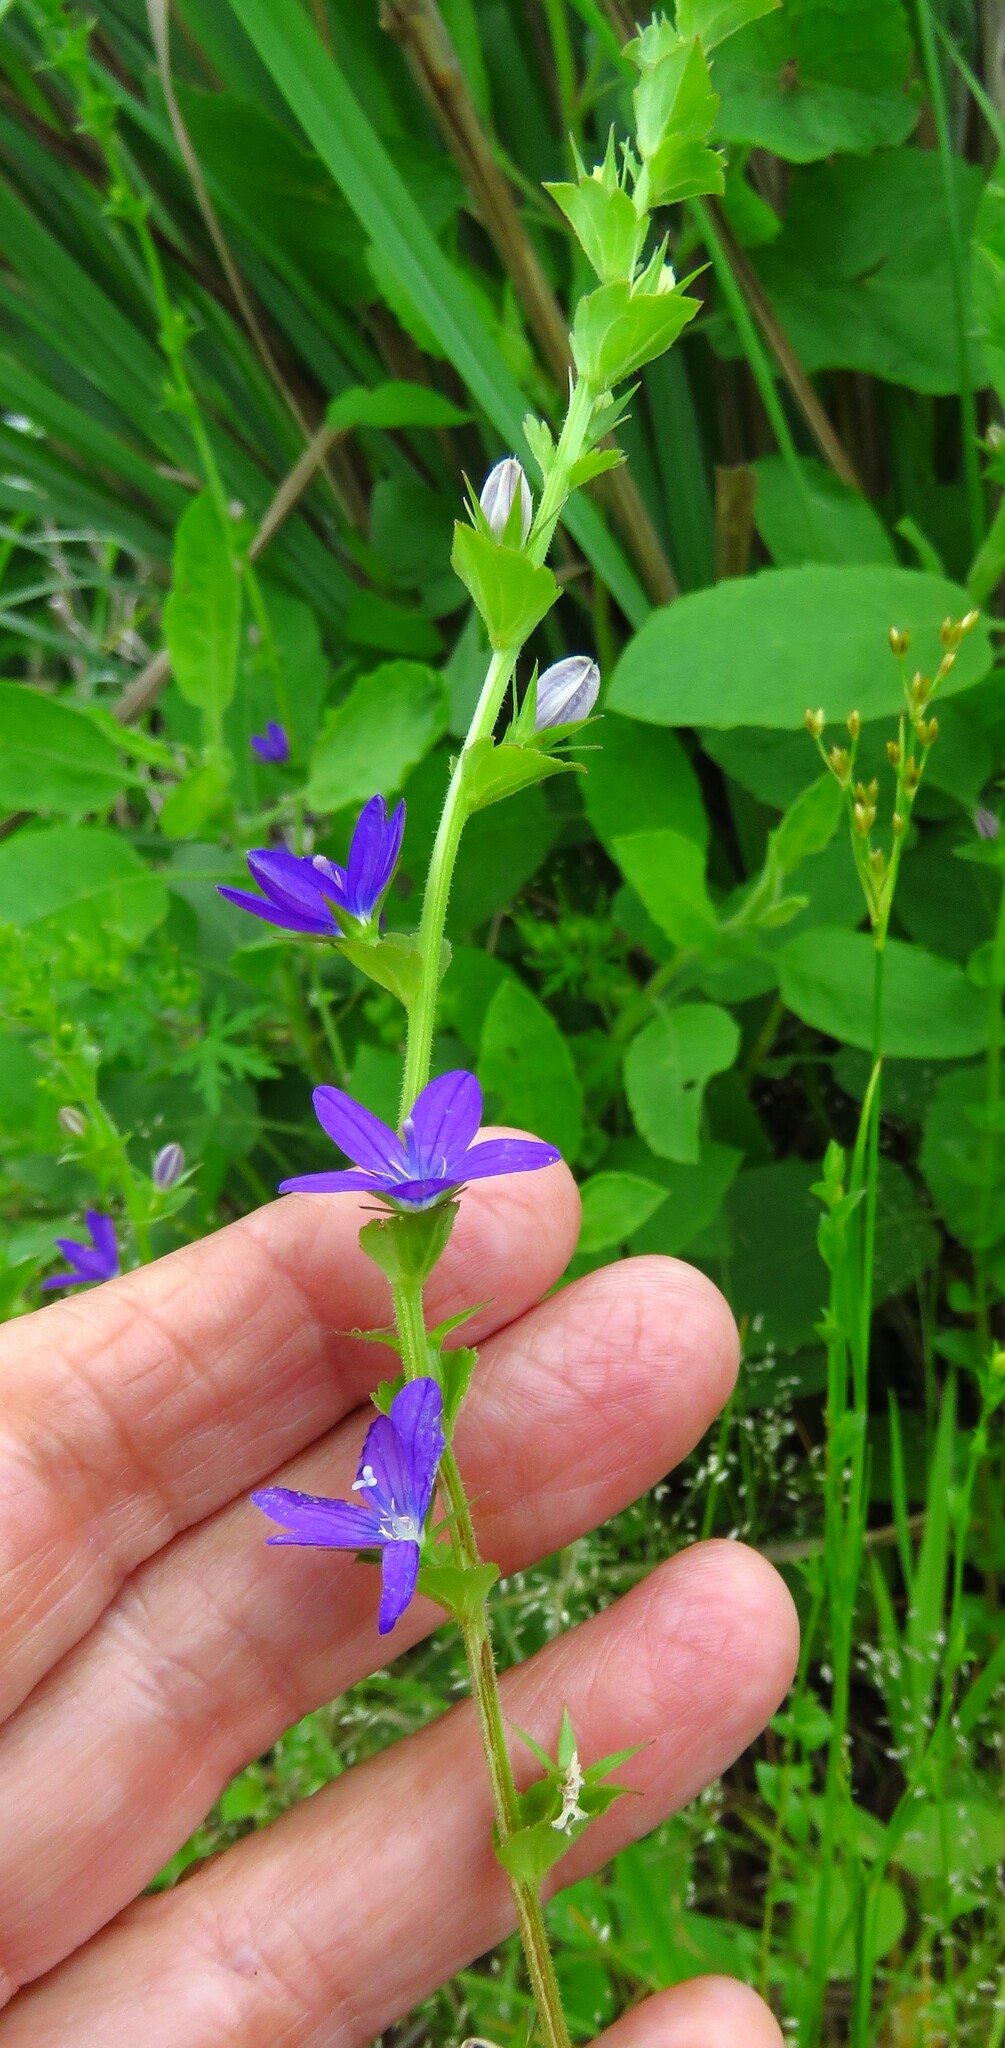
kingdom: Plantae
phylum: Tracheophyta
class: Magnoliopsida
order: Asterales
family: Campanulaceae
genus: Triodanis
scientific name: Triodanis perfoliata
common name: Clasping venus' looking-glass
